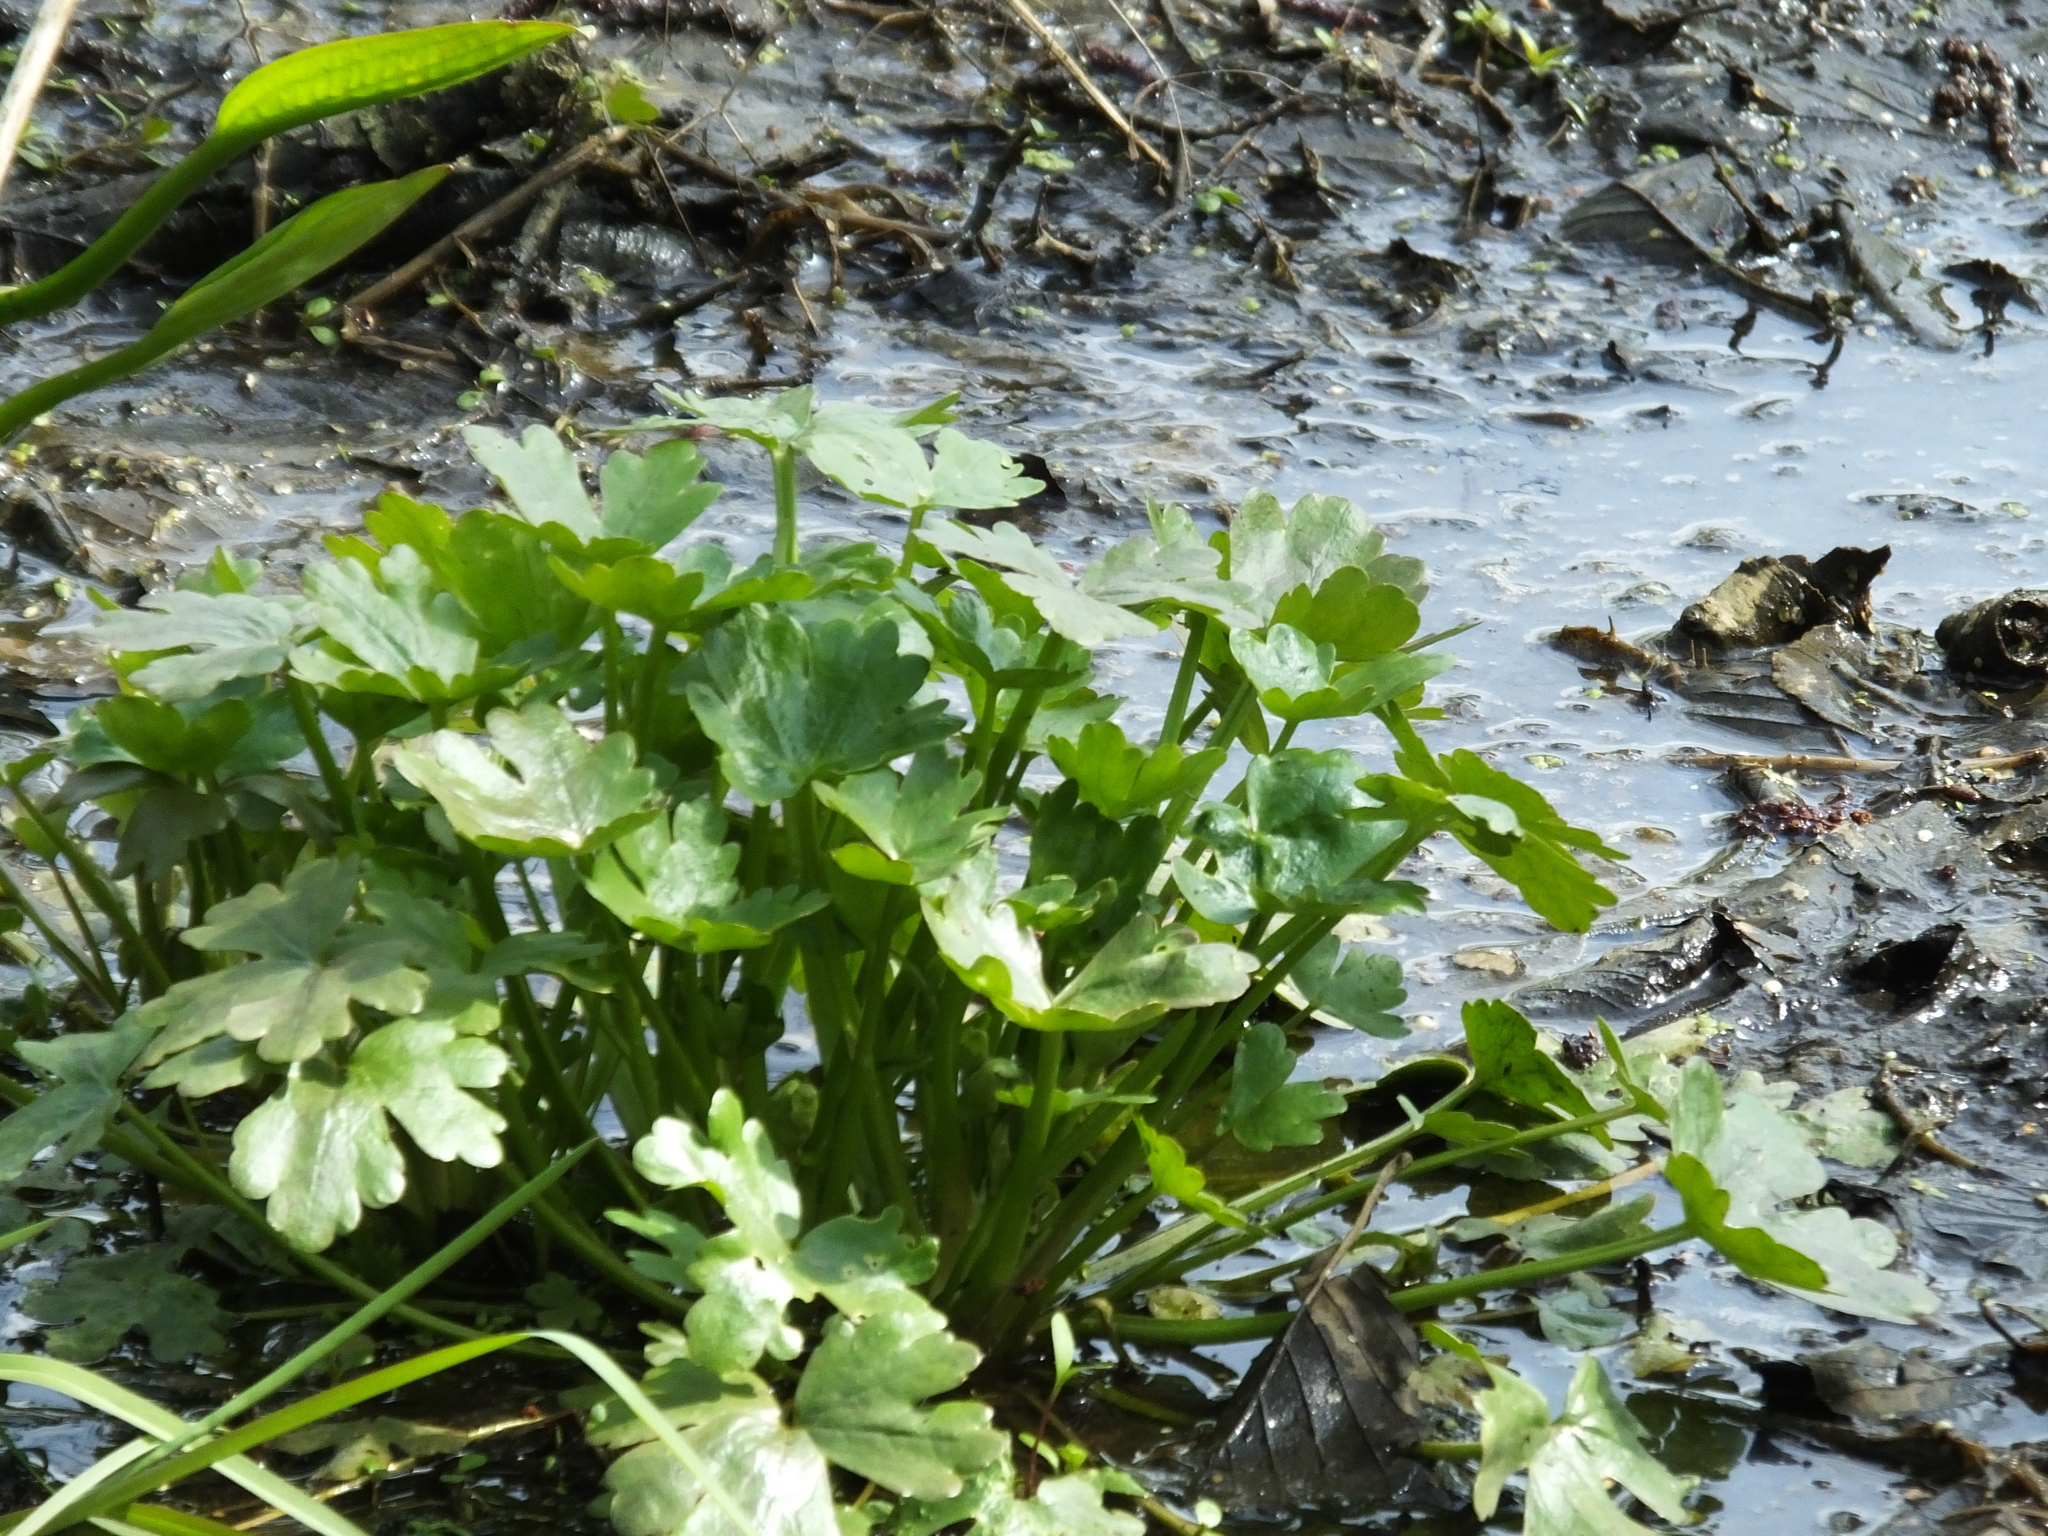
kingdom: Plantae
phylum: Tracheophyta
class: Magnoliopsida
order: Ranunculales
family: Ranunculaceae
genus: Ranunculus
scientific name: Ranunculus sceleratus
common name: Celery-leaved buttercup
